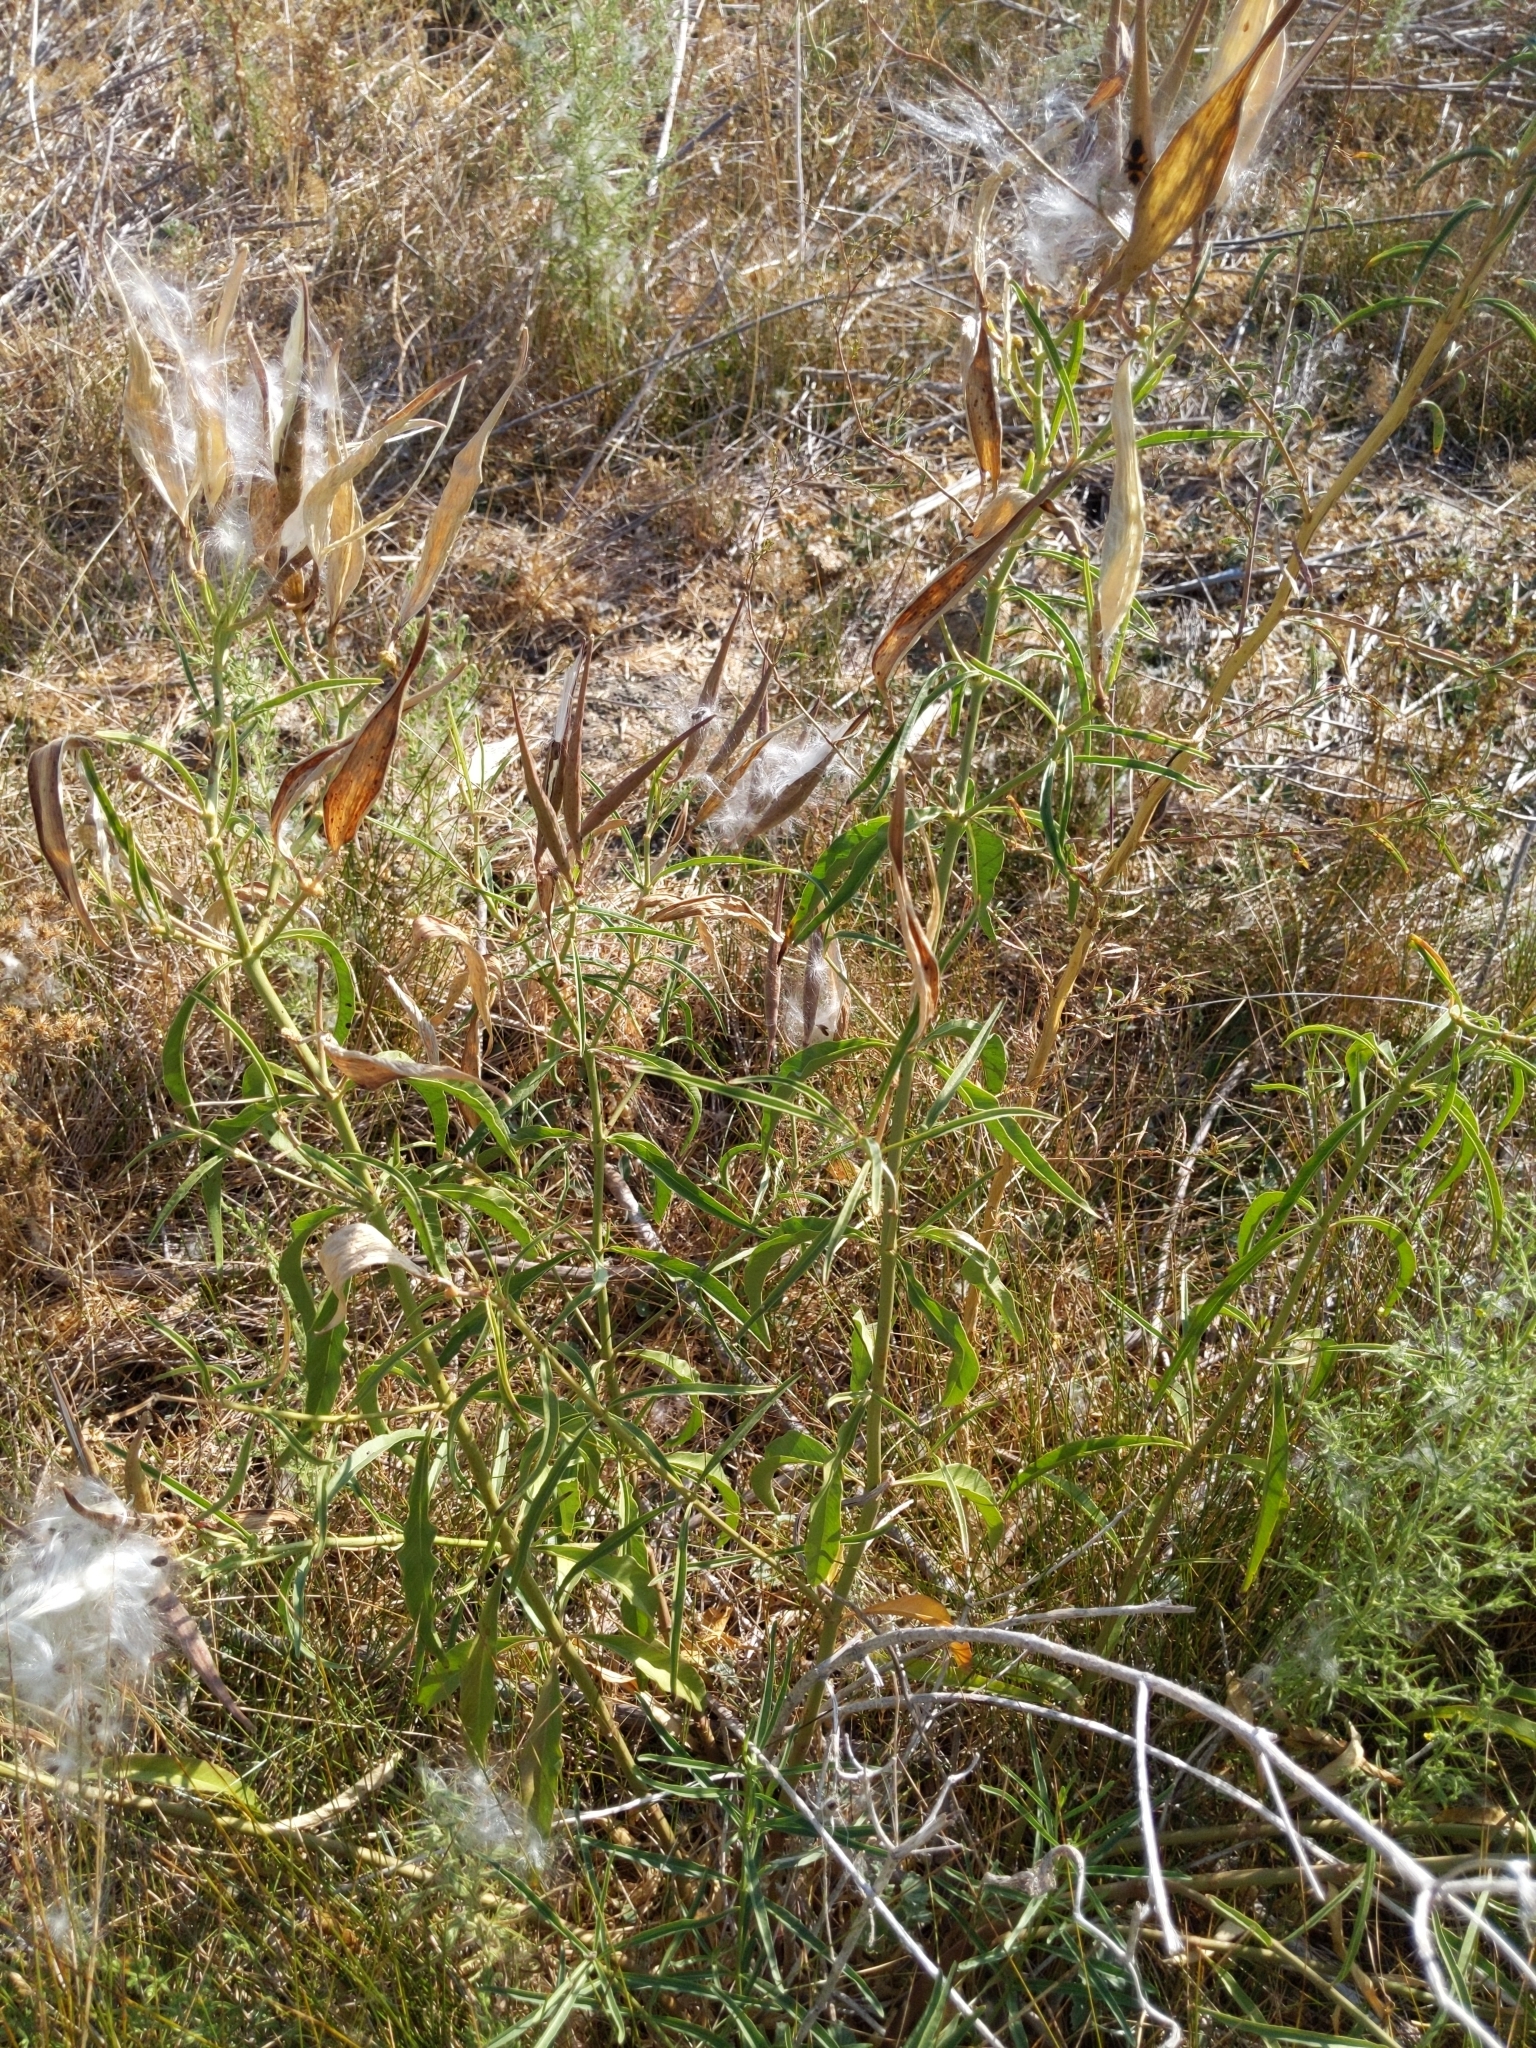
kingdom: Plantae
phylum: Tracheophyta
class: Magnoliopsida
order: Gentianales
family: Apocynaceae
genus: Asclepias
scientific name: Asclepias fascicularis
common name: Mexican milkweed
